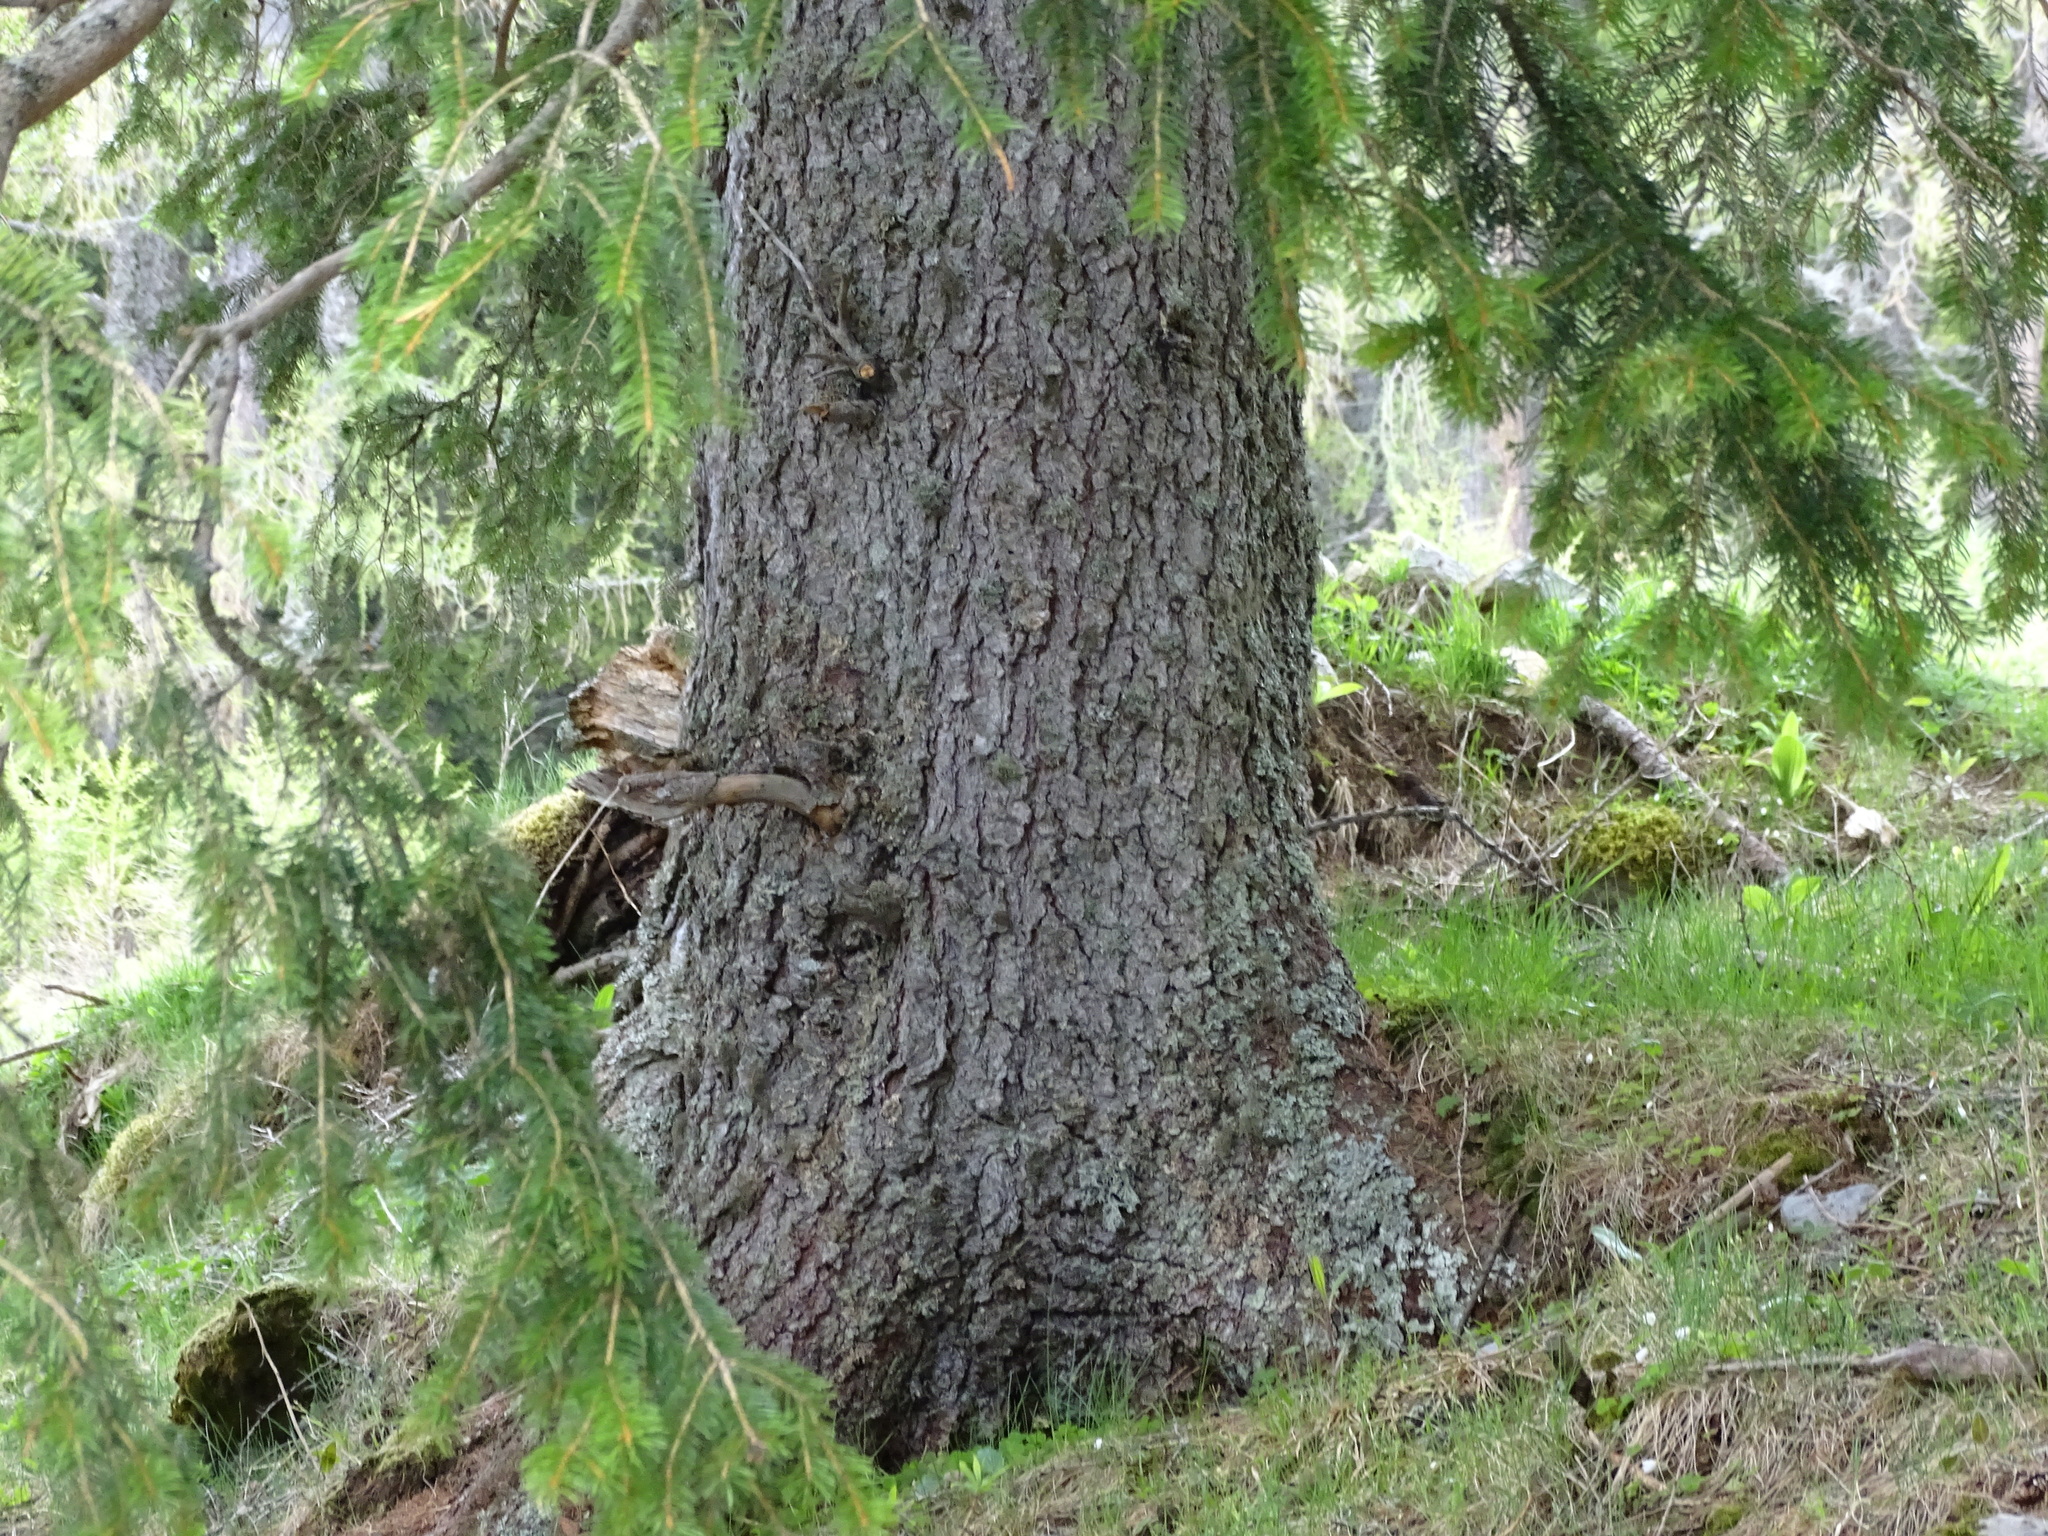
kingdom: Plantae
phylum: Tracheophyta
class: Pinopsida
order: Pinales
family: Pinaceae
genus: Picea
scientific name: Picea abies
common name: Norway spruce
